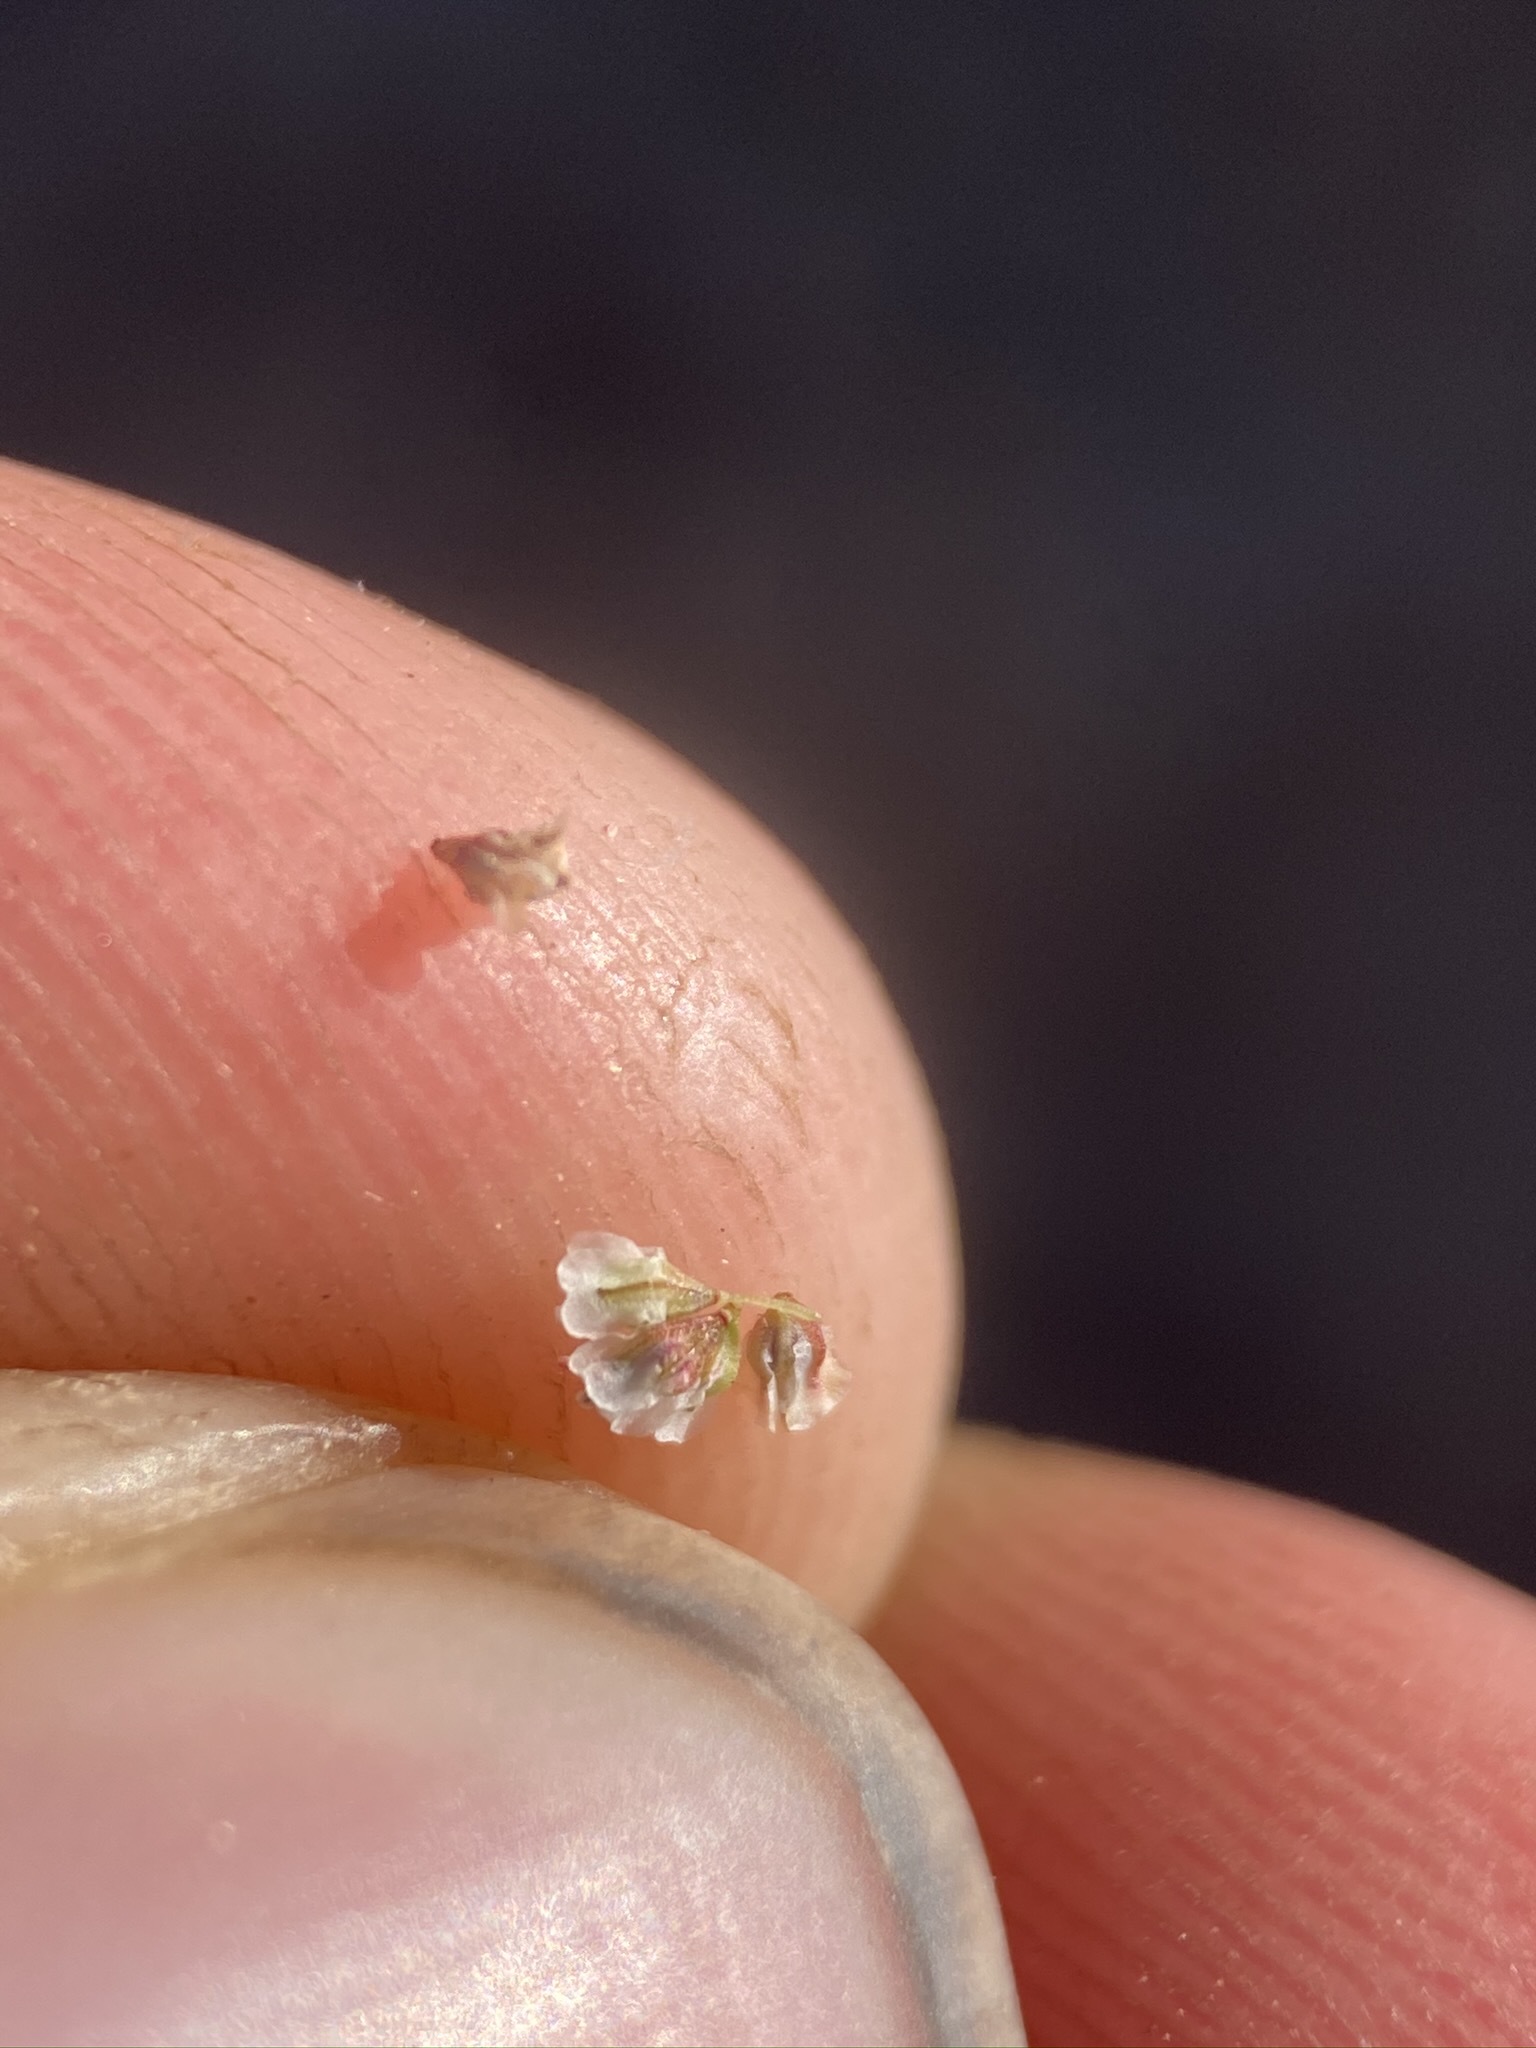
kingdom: Plantae
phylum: Tracheophyta
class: Magnoliopsida
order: Caryophyllales
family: Polygonaceae
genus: Eriogonum
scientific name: Eriogonum cernuum
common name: Nodding wild buckwheat
